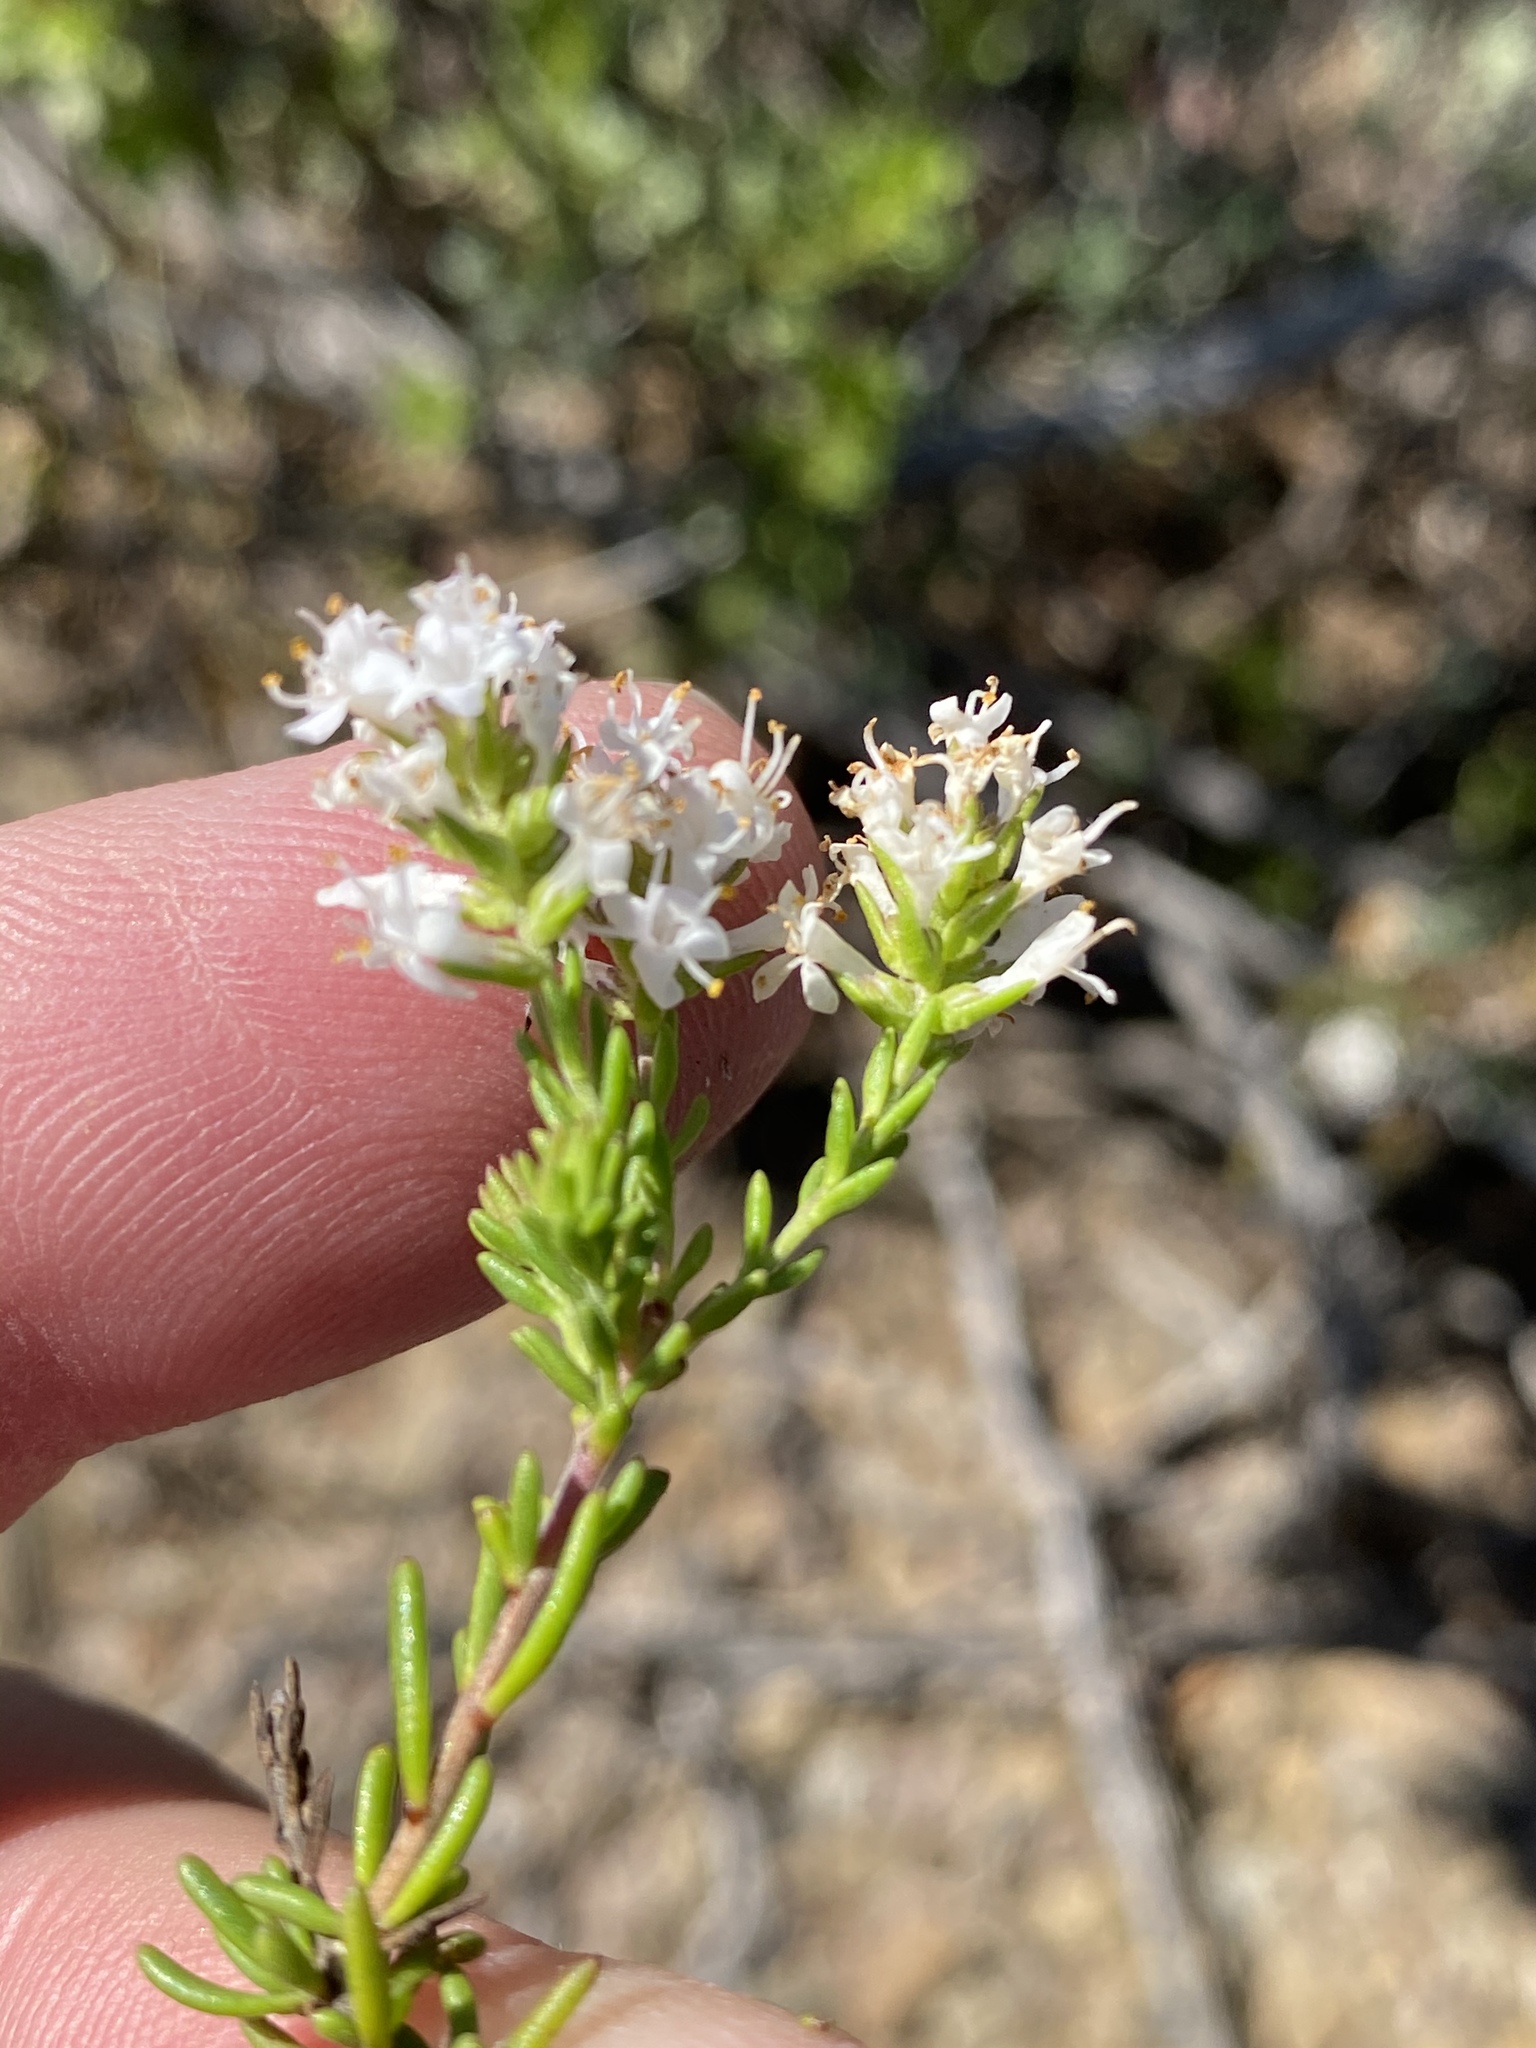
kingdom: Plantae
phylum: Tracheophyta
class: Magnoliopsida
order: Lamiales
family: Scrophulariaceae
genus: Selago
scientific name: Selago distans
